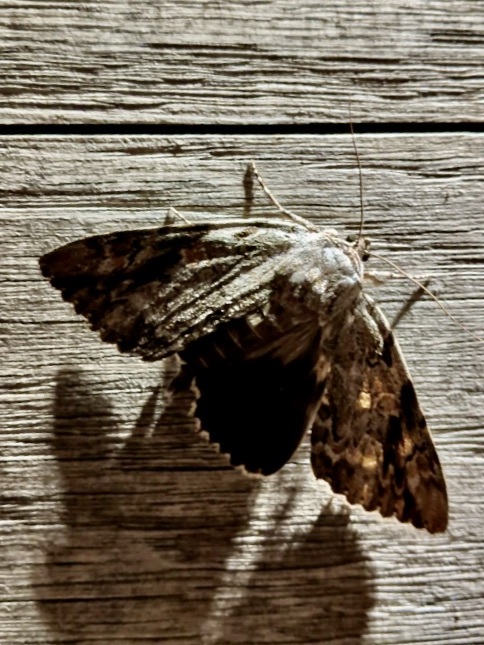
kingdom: Animalia
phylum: Arthropoda
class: Insecta
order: Lepidoptera
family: Erebidae
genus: Catocala
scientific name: Catocala maestosa
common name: Sad underwing
